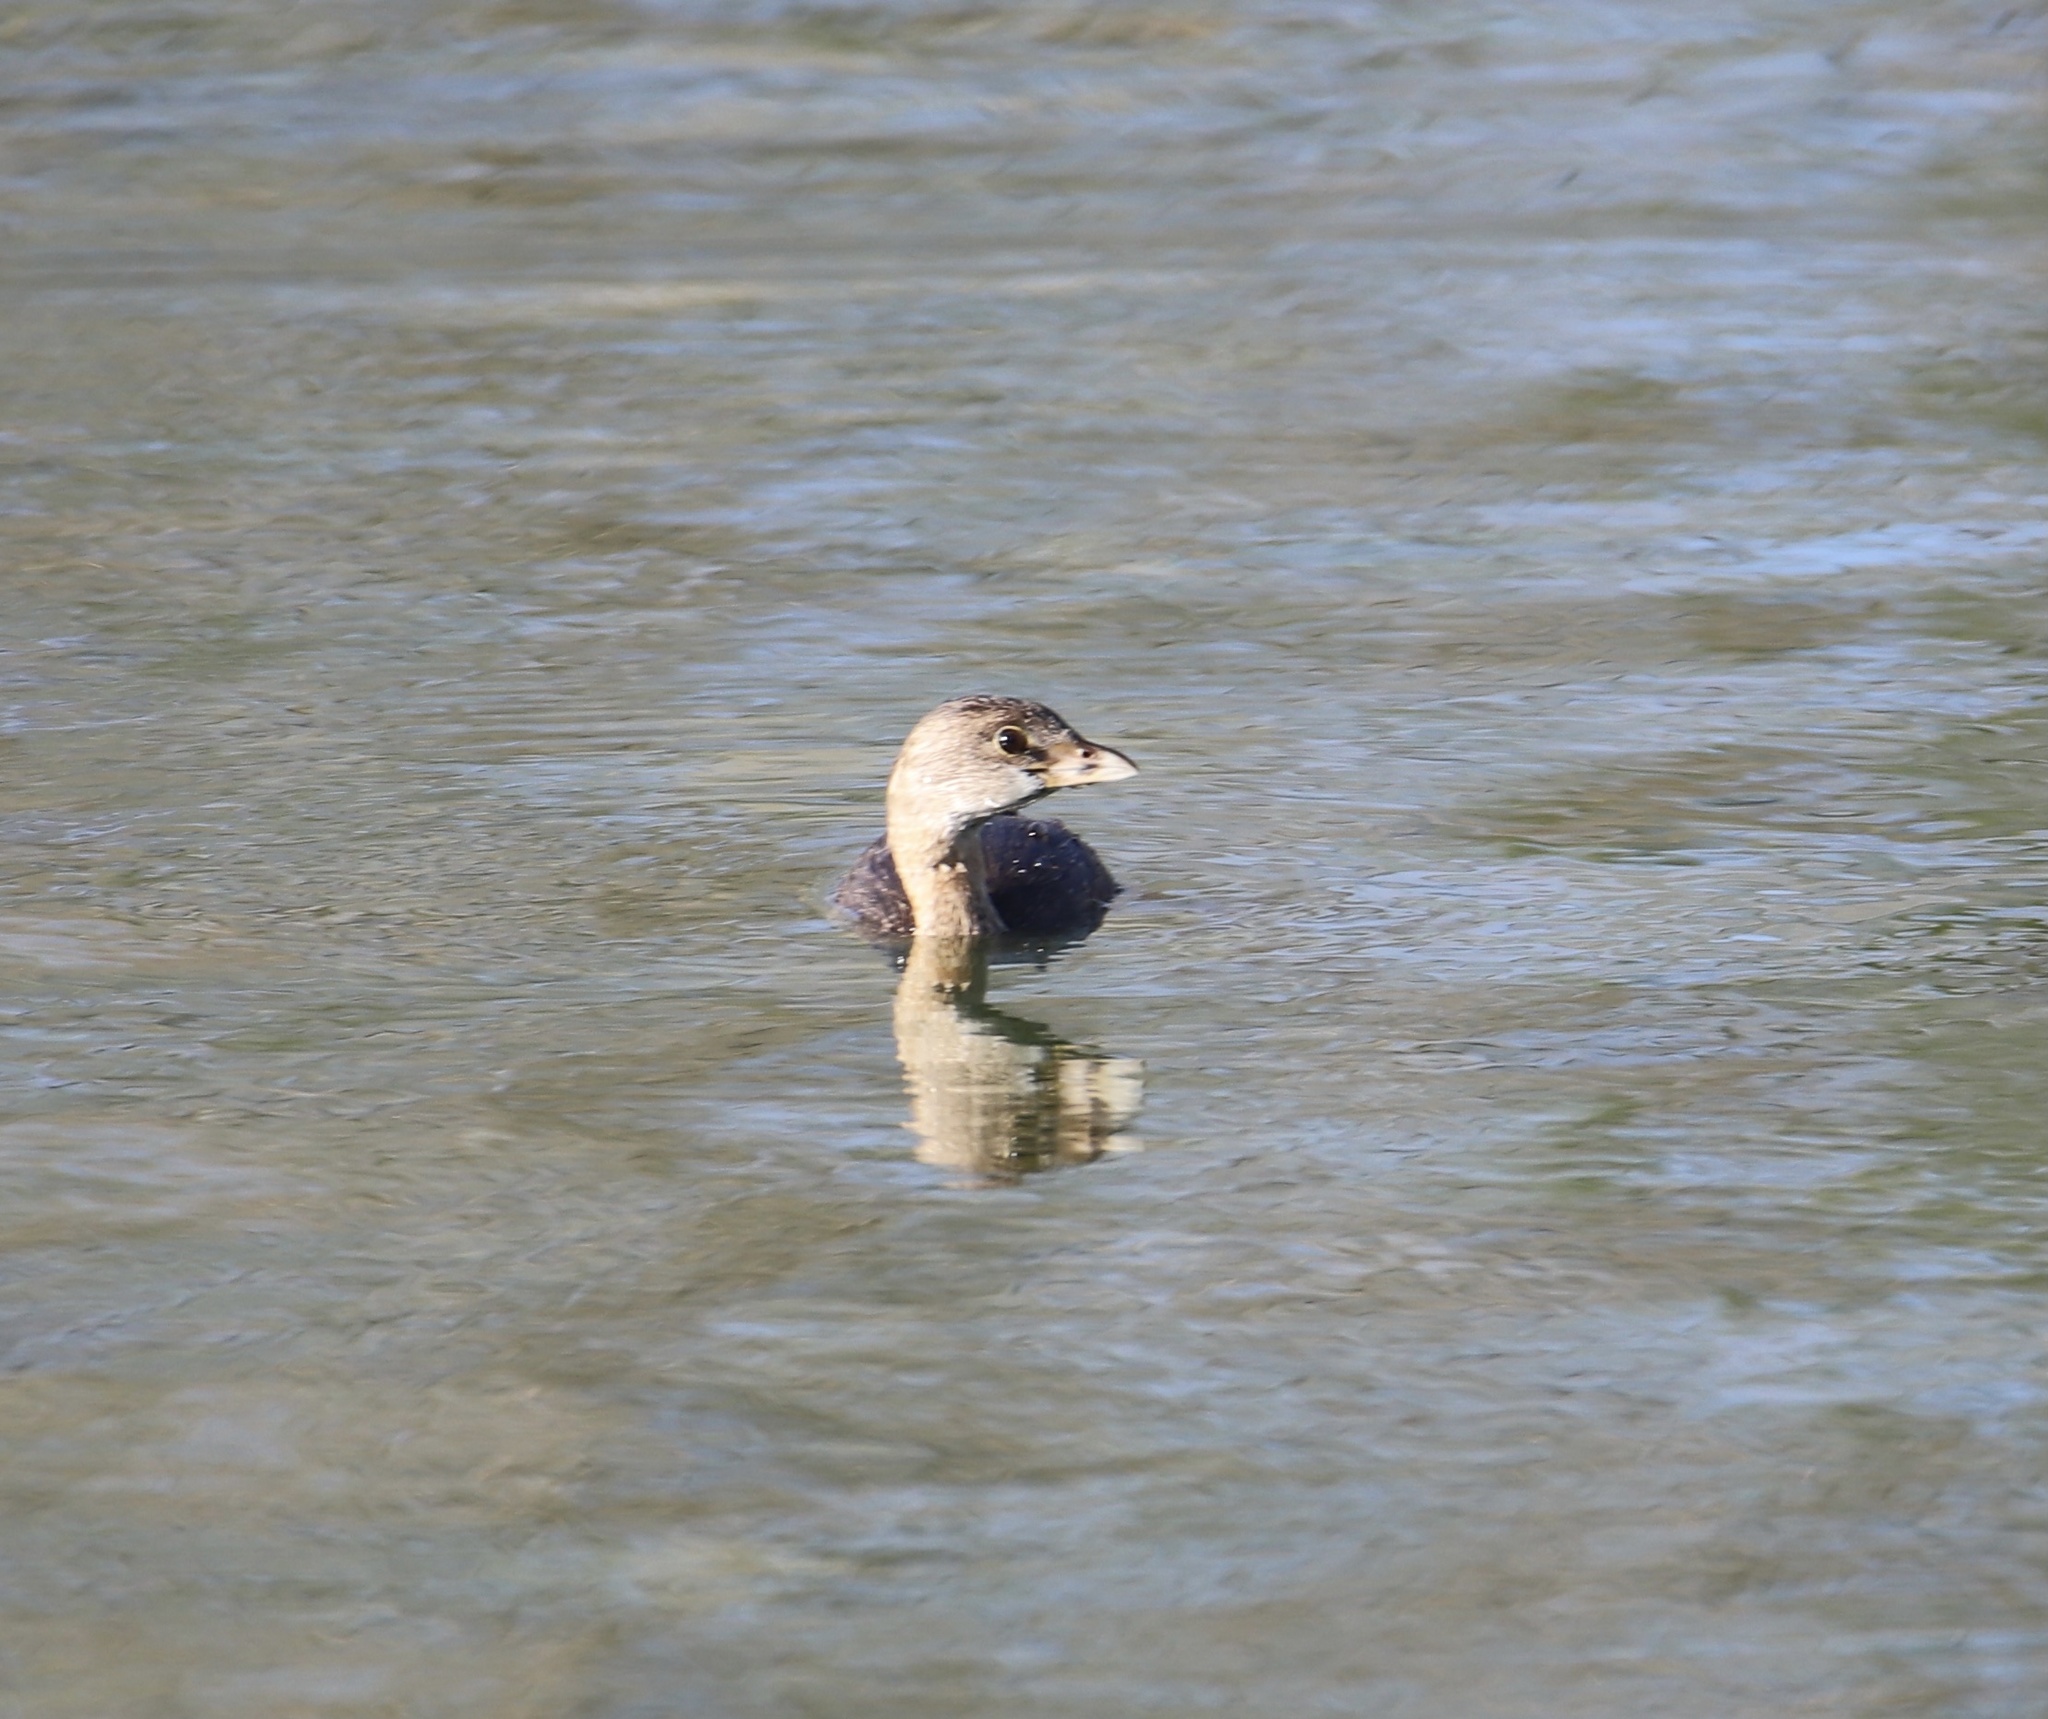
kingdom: Animalia
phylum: Chordata
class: Aves
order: Podicipediformes
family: Podicipedidae
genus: Podilymbus
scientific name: Podilymbus podiceps
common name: Pied-billed grebe
